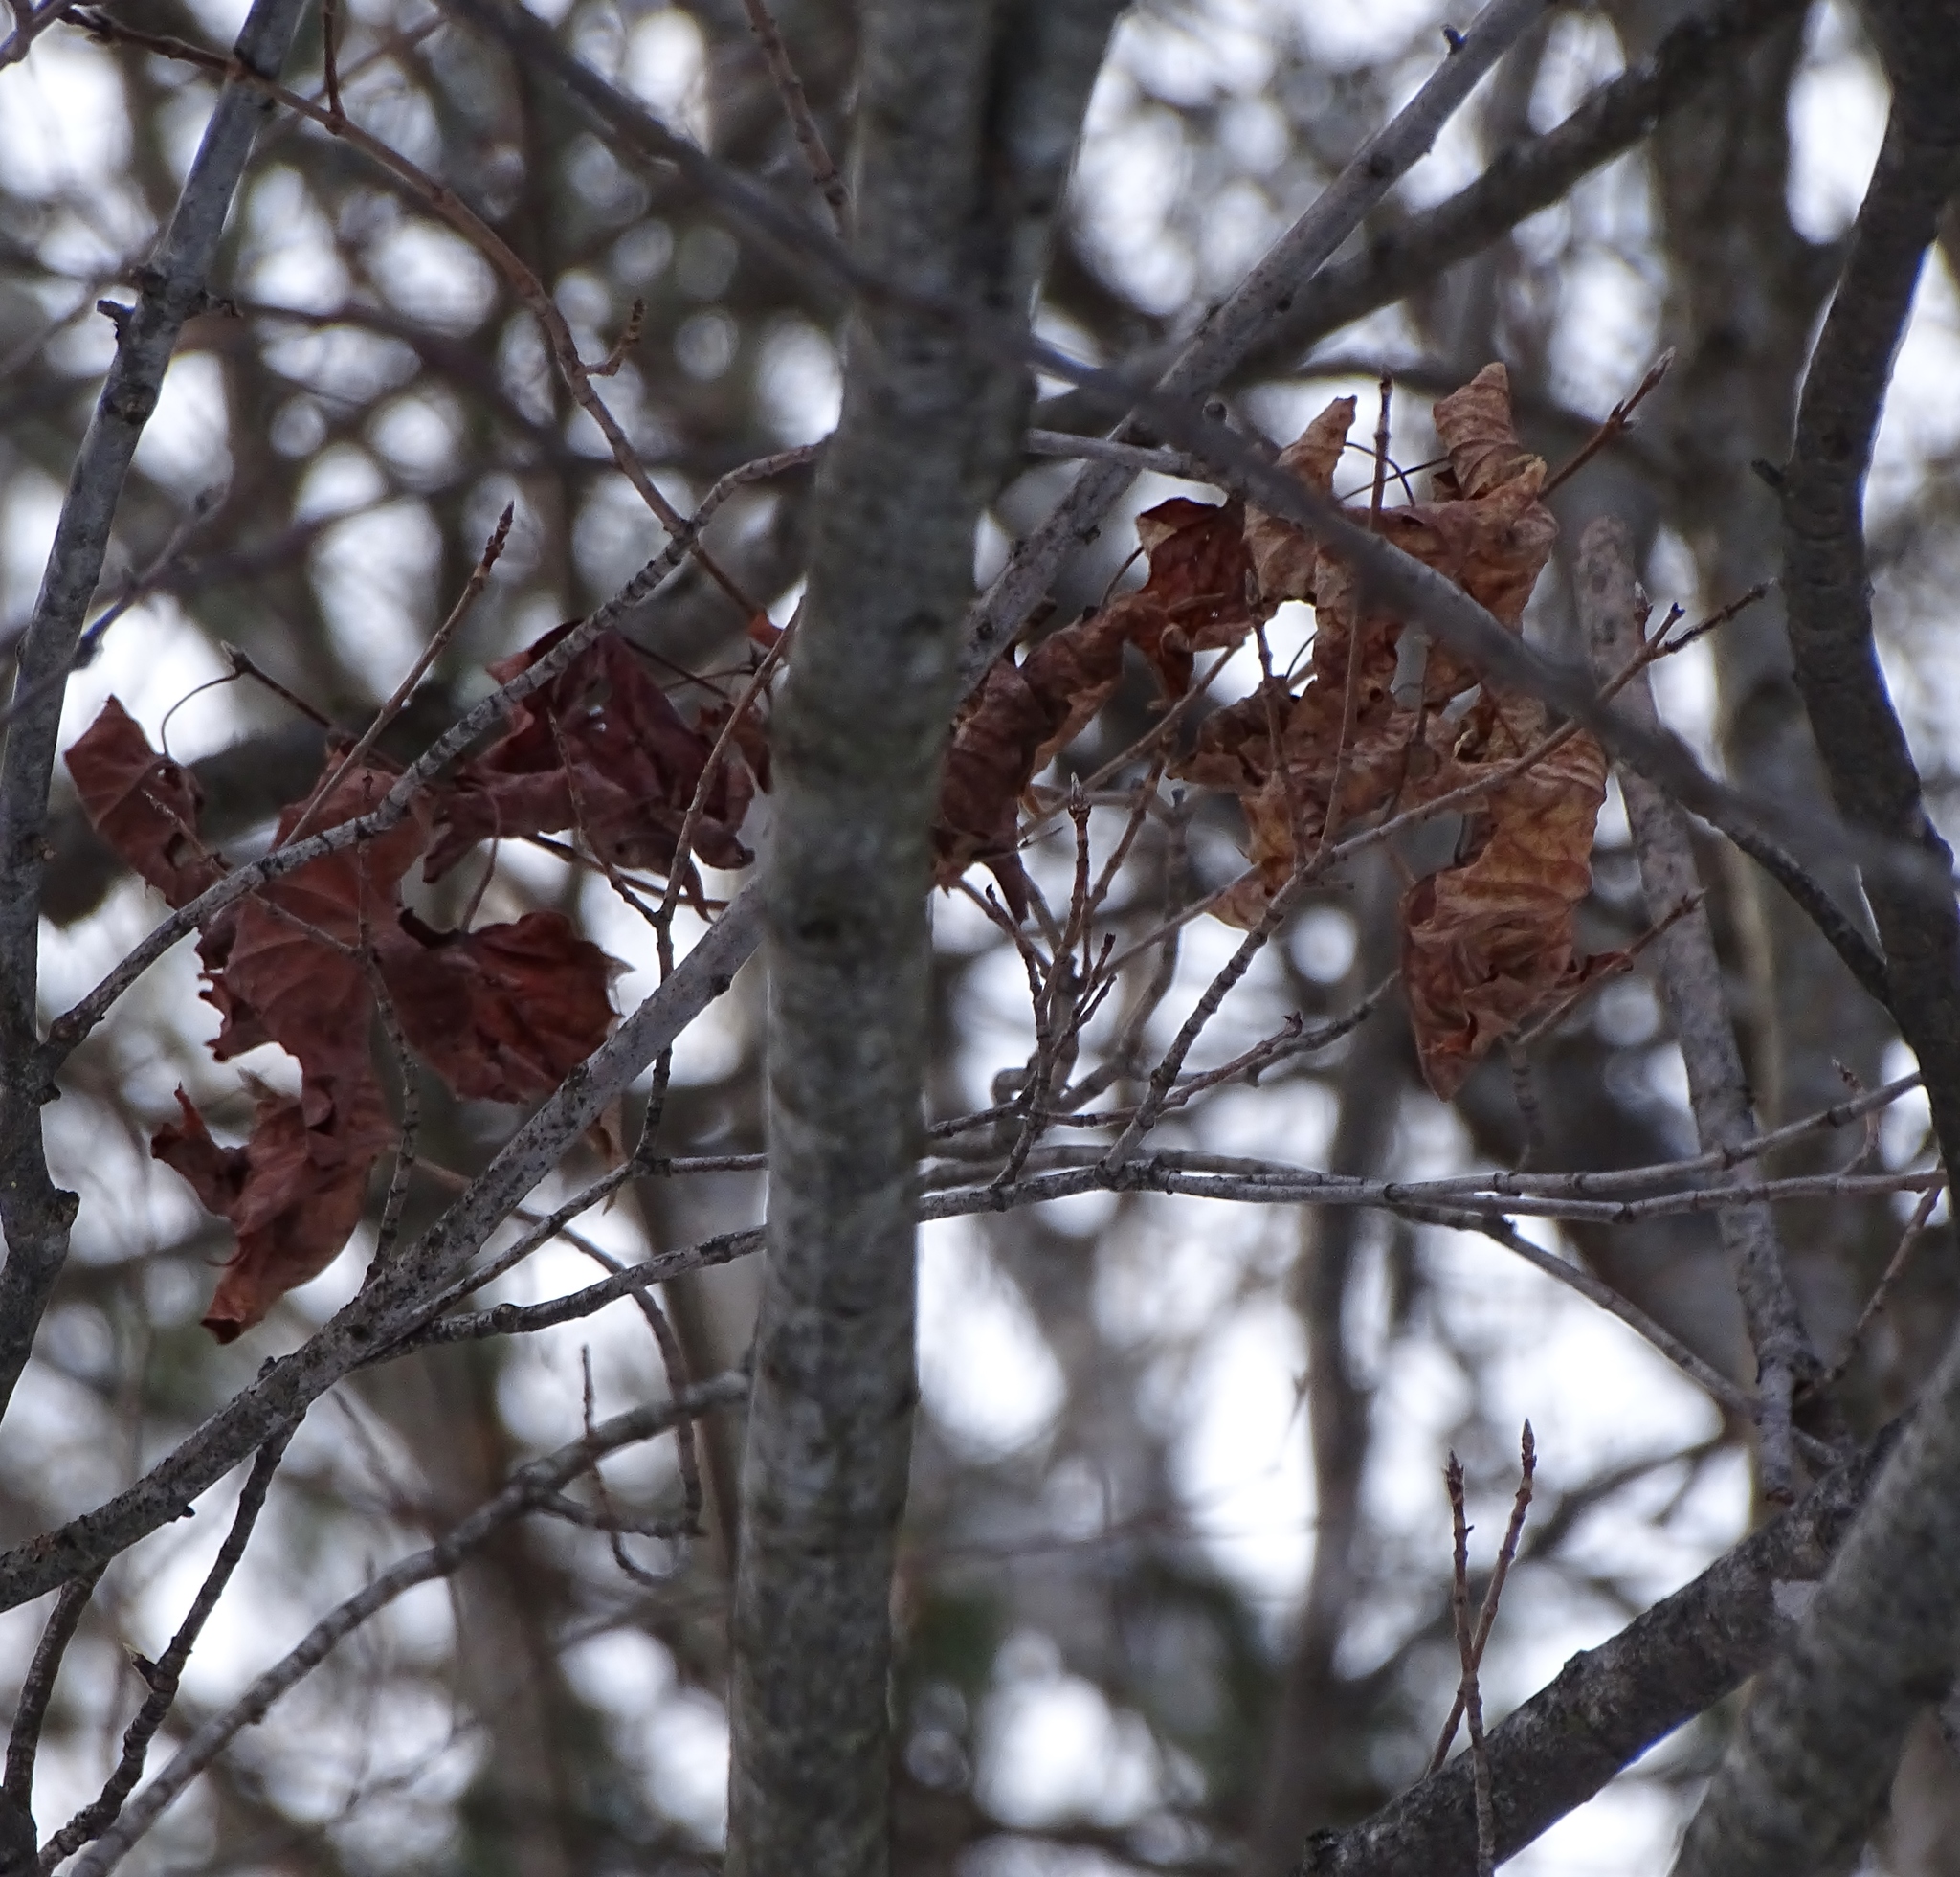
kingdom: Plantae
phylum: Tracheophyta
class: Magnoliopsida
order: Sapindales
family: Sapindaceae
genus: Acer
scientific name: Acer saccharum
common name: Sugar maple
